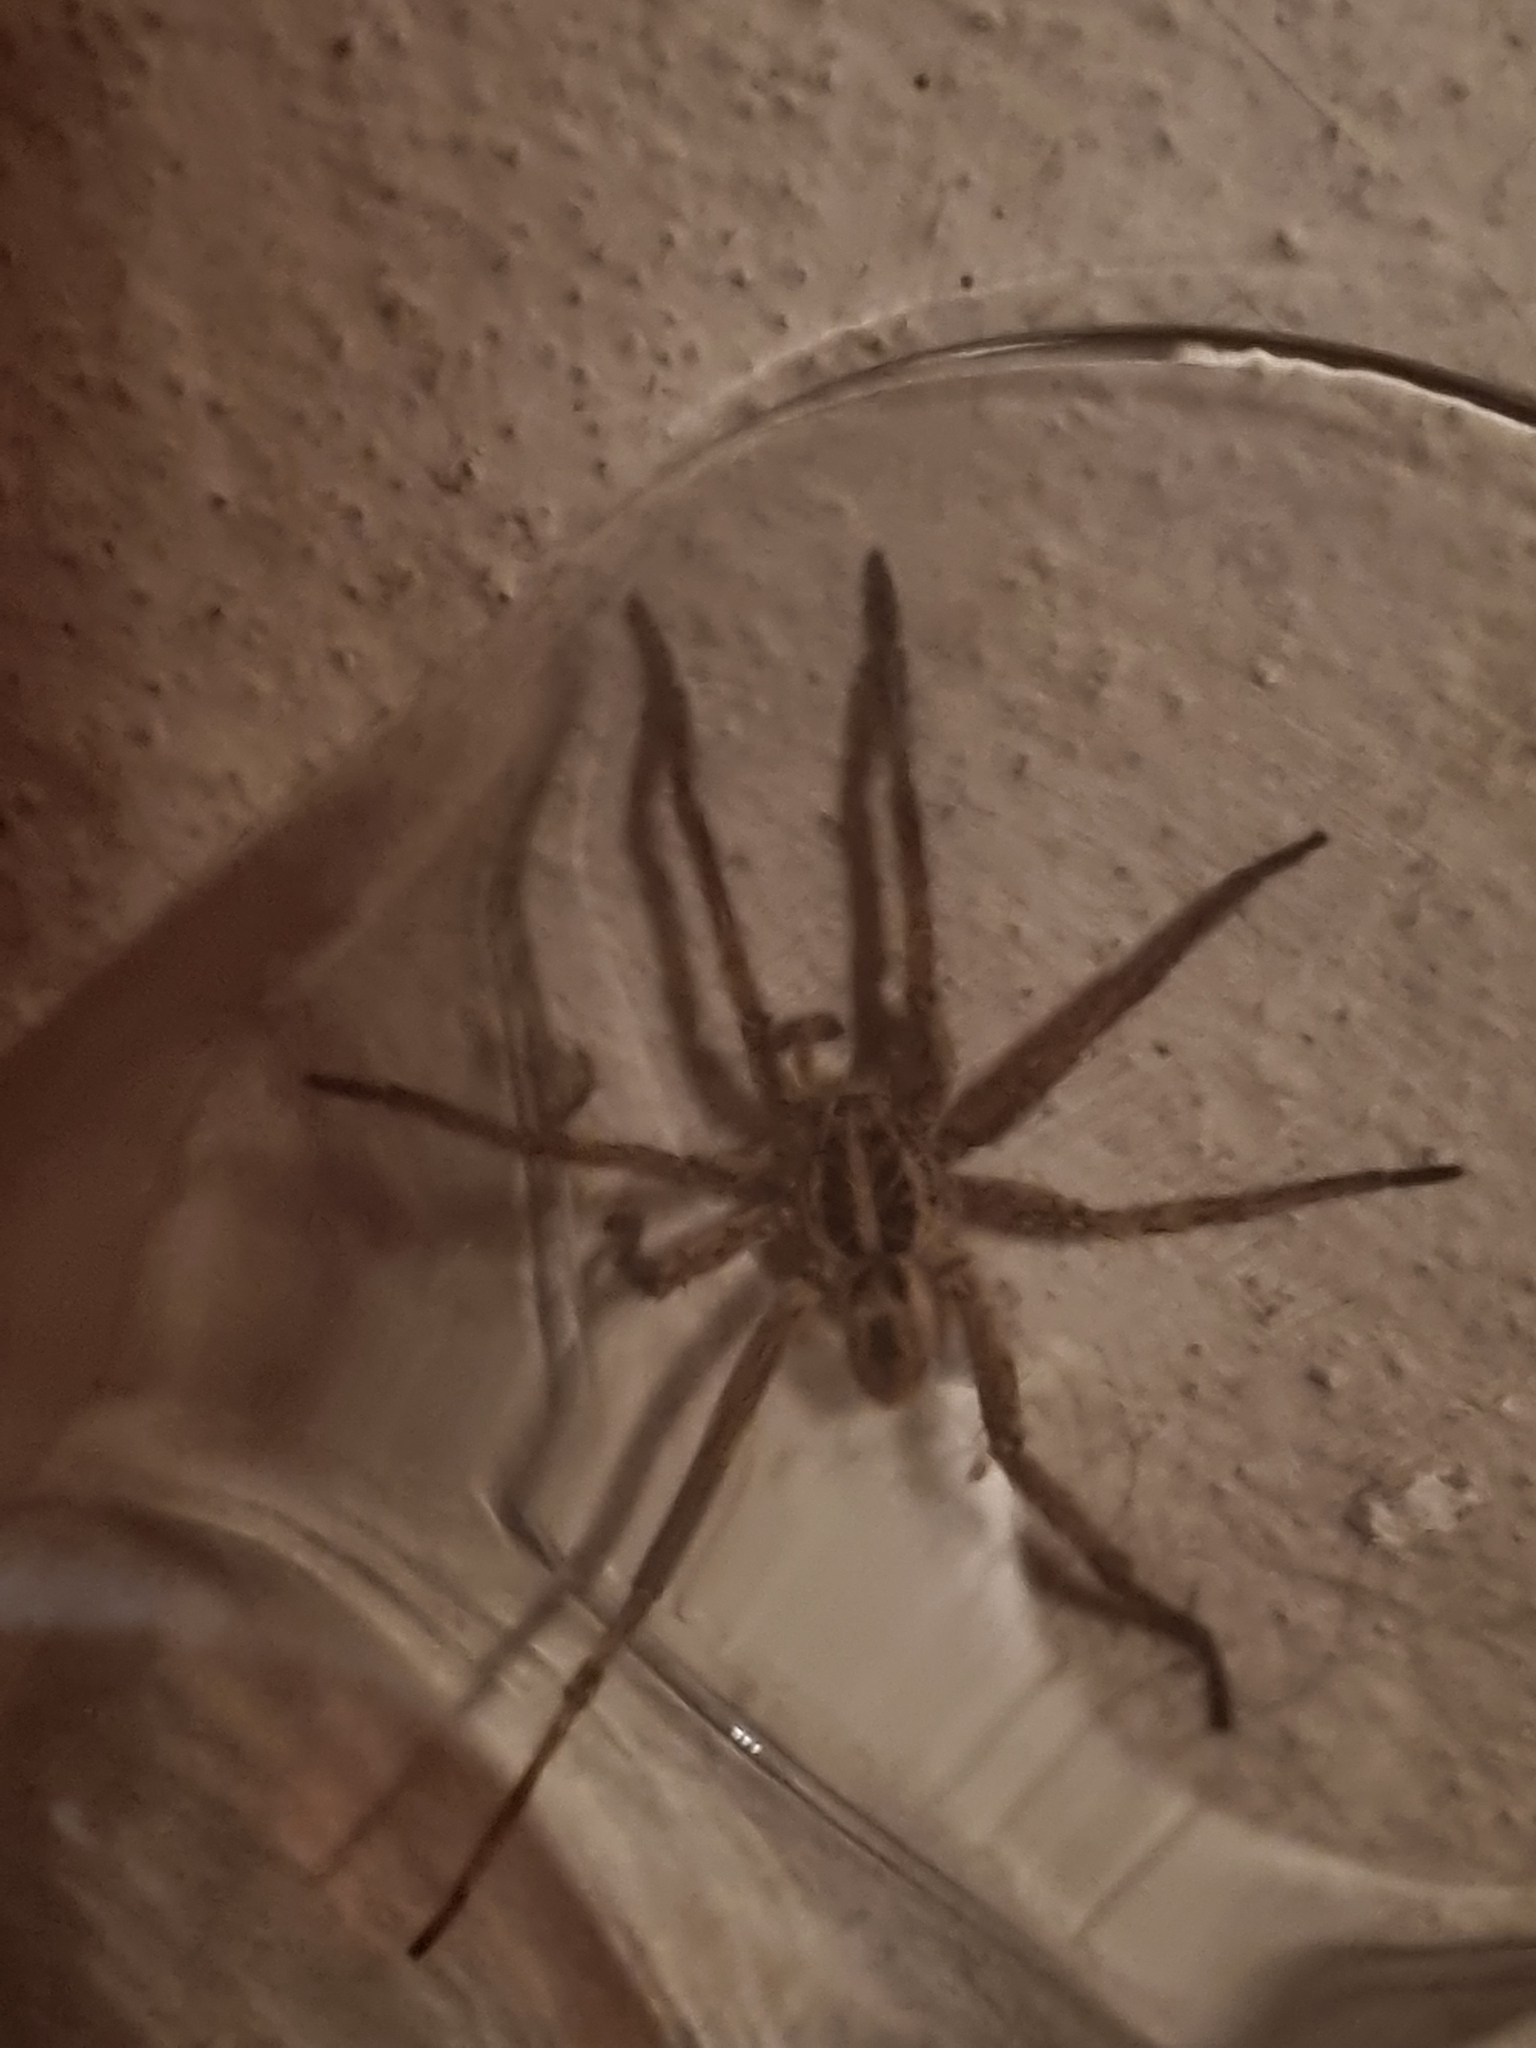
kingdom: Animalia
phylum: Arthropoda
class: Arachnida
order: Araneae
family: Lycosidae
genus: Hogna
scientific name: Hogna radiata
